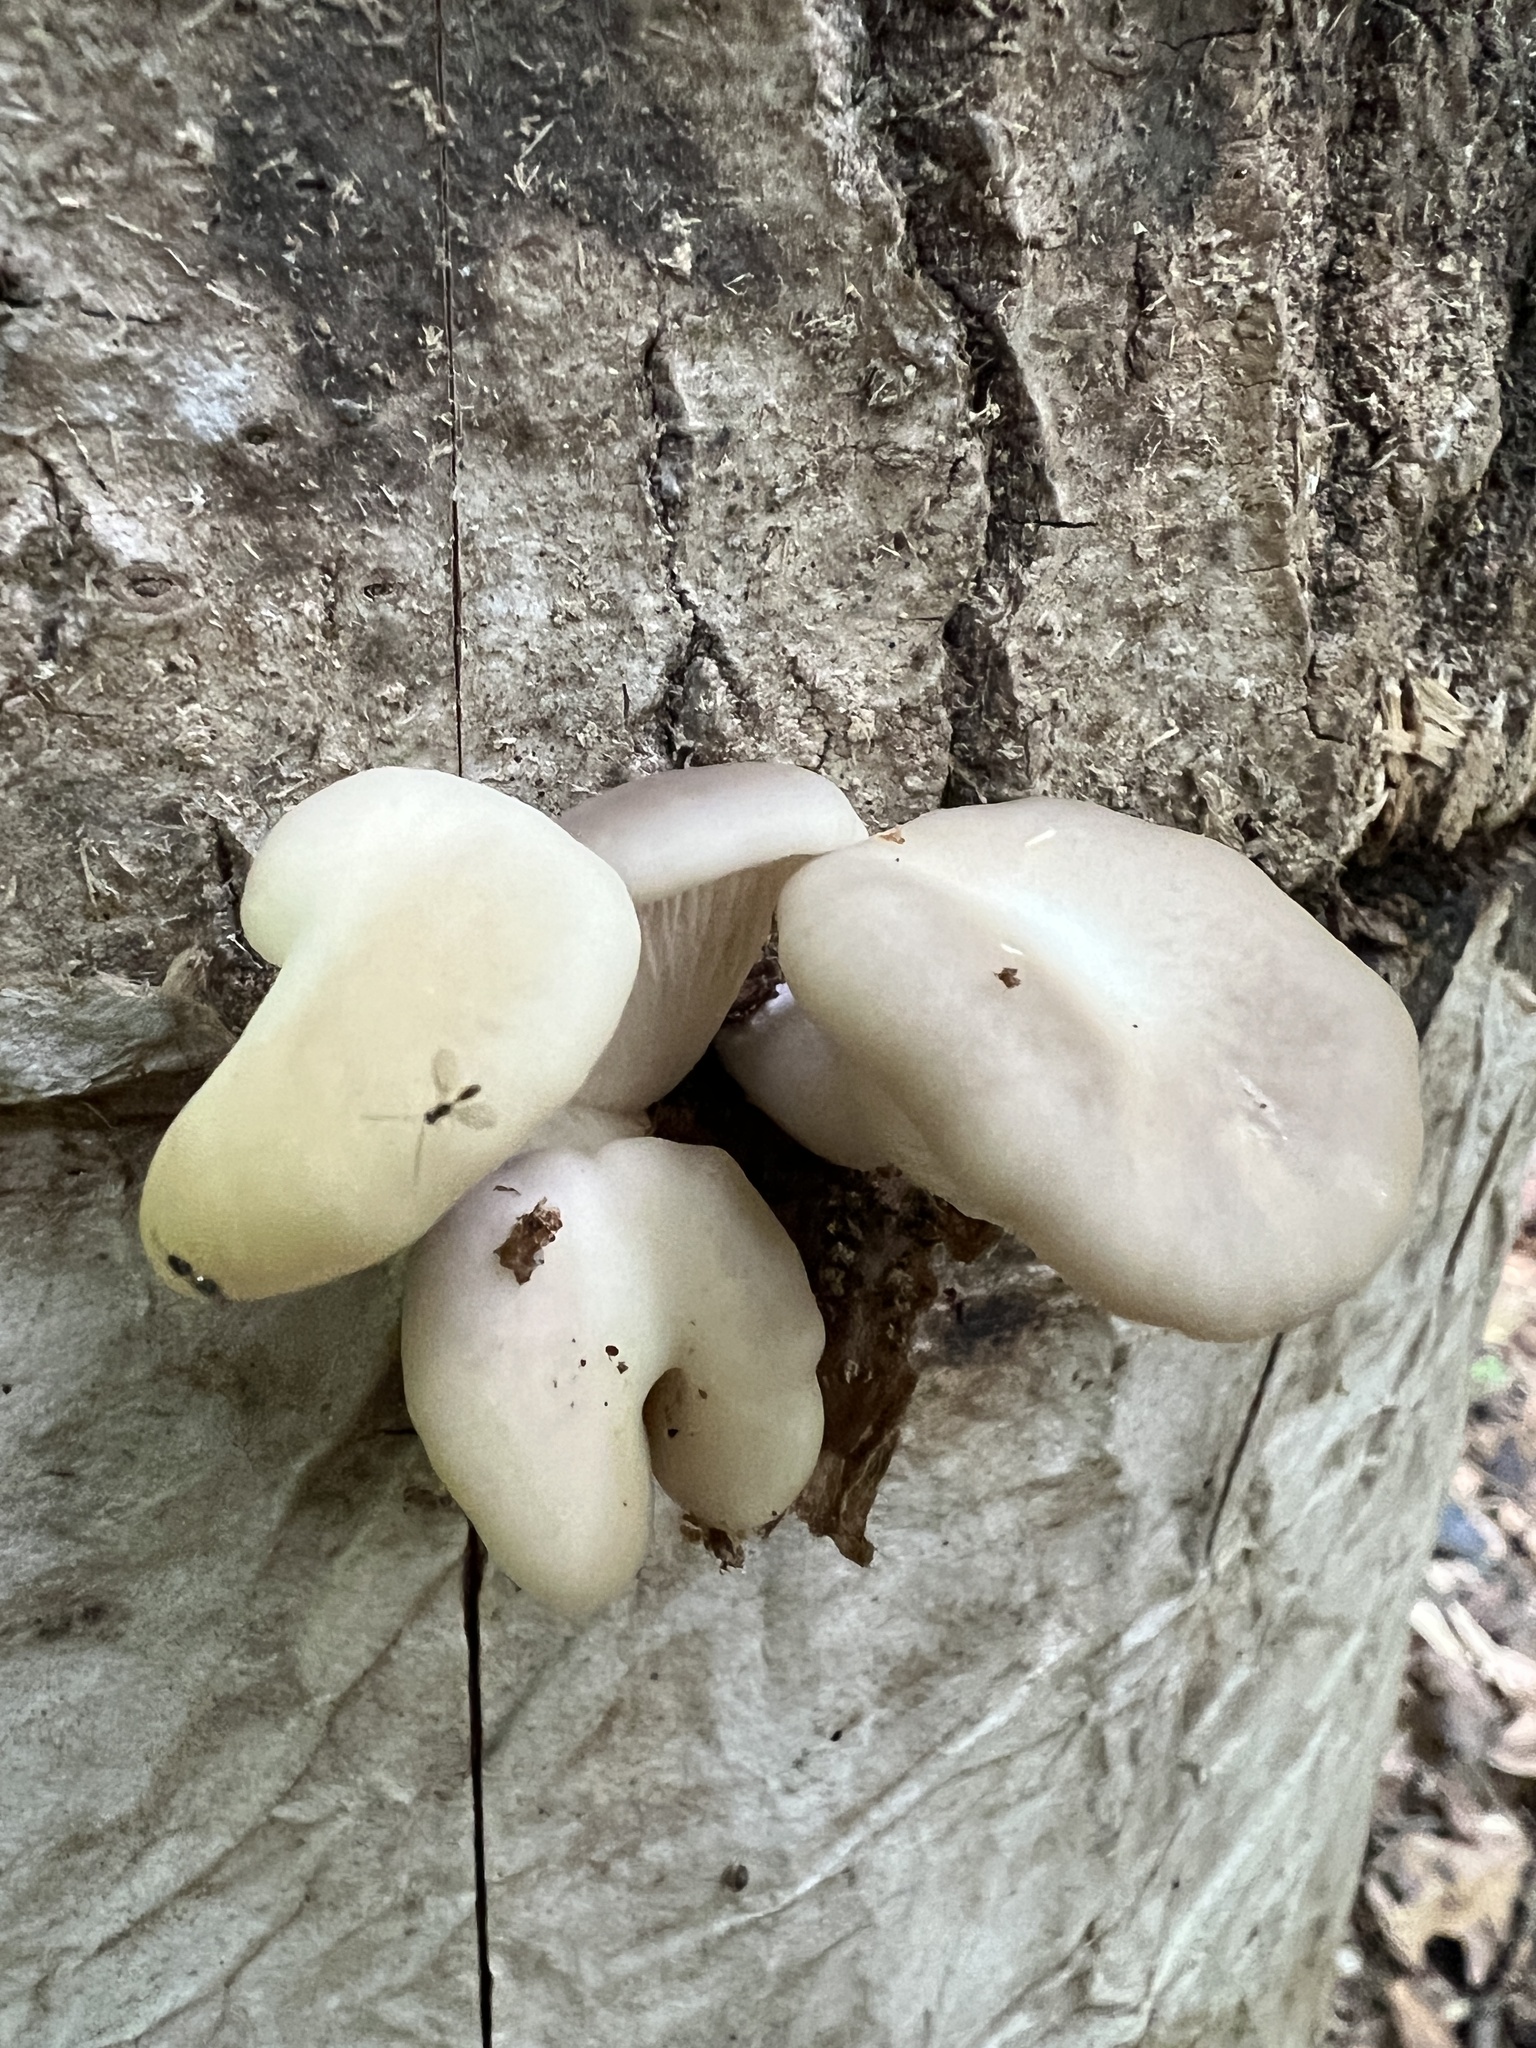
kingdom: Fungi
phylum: Basidiomycota
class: Agaricomycetes
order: Agaricales
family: Pleurotaceae
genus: Pleurotus
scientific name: Pleurotus pulmonarius
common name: Pale oyster
